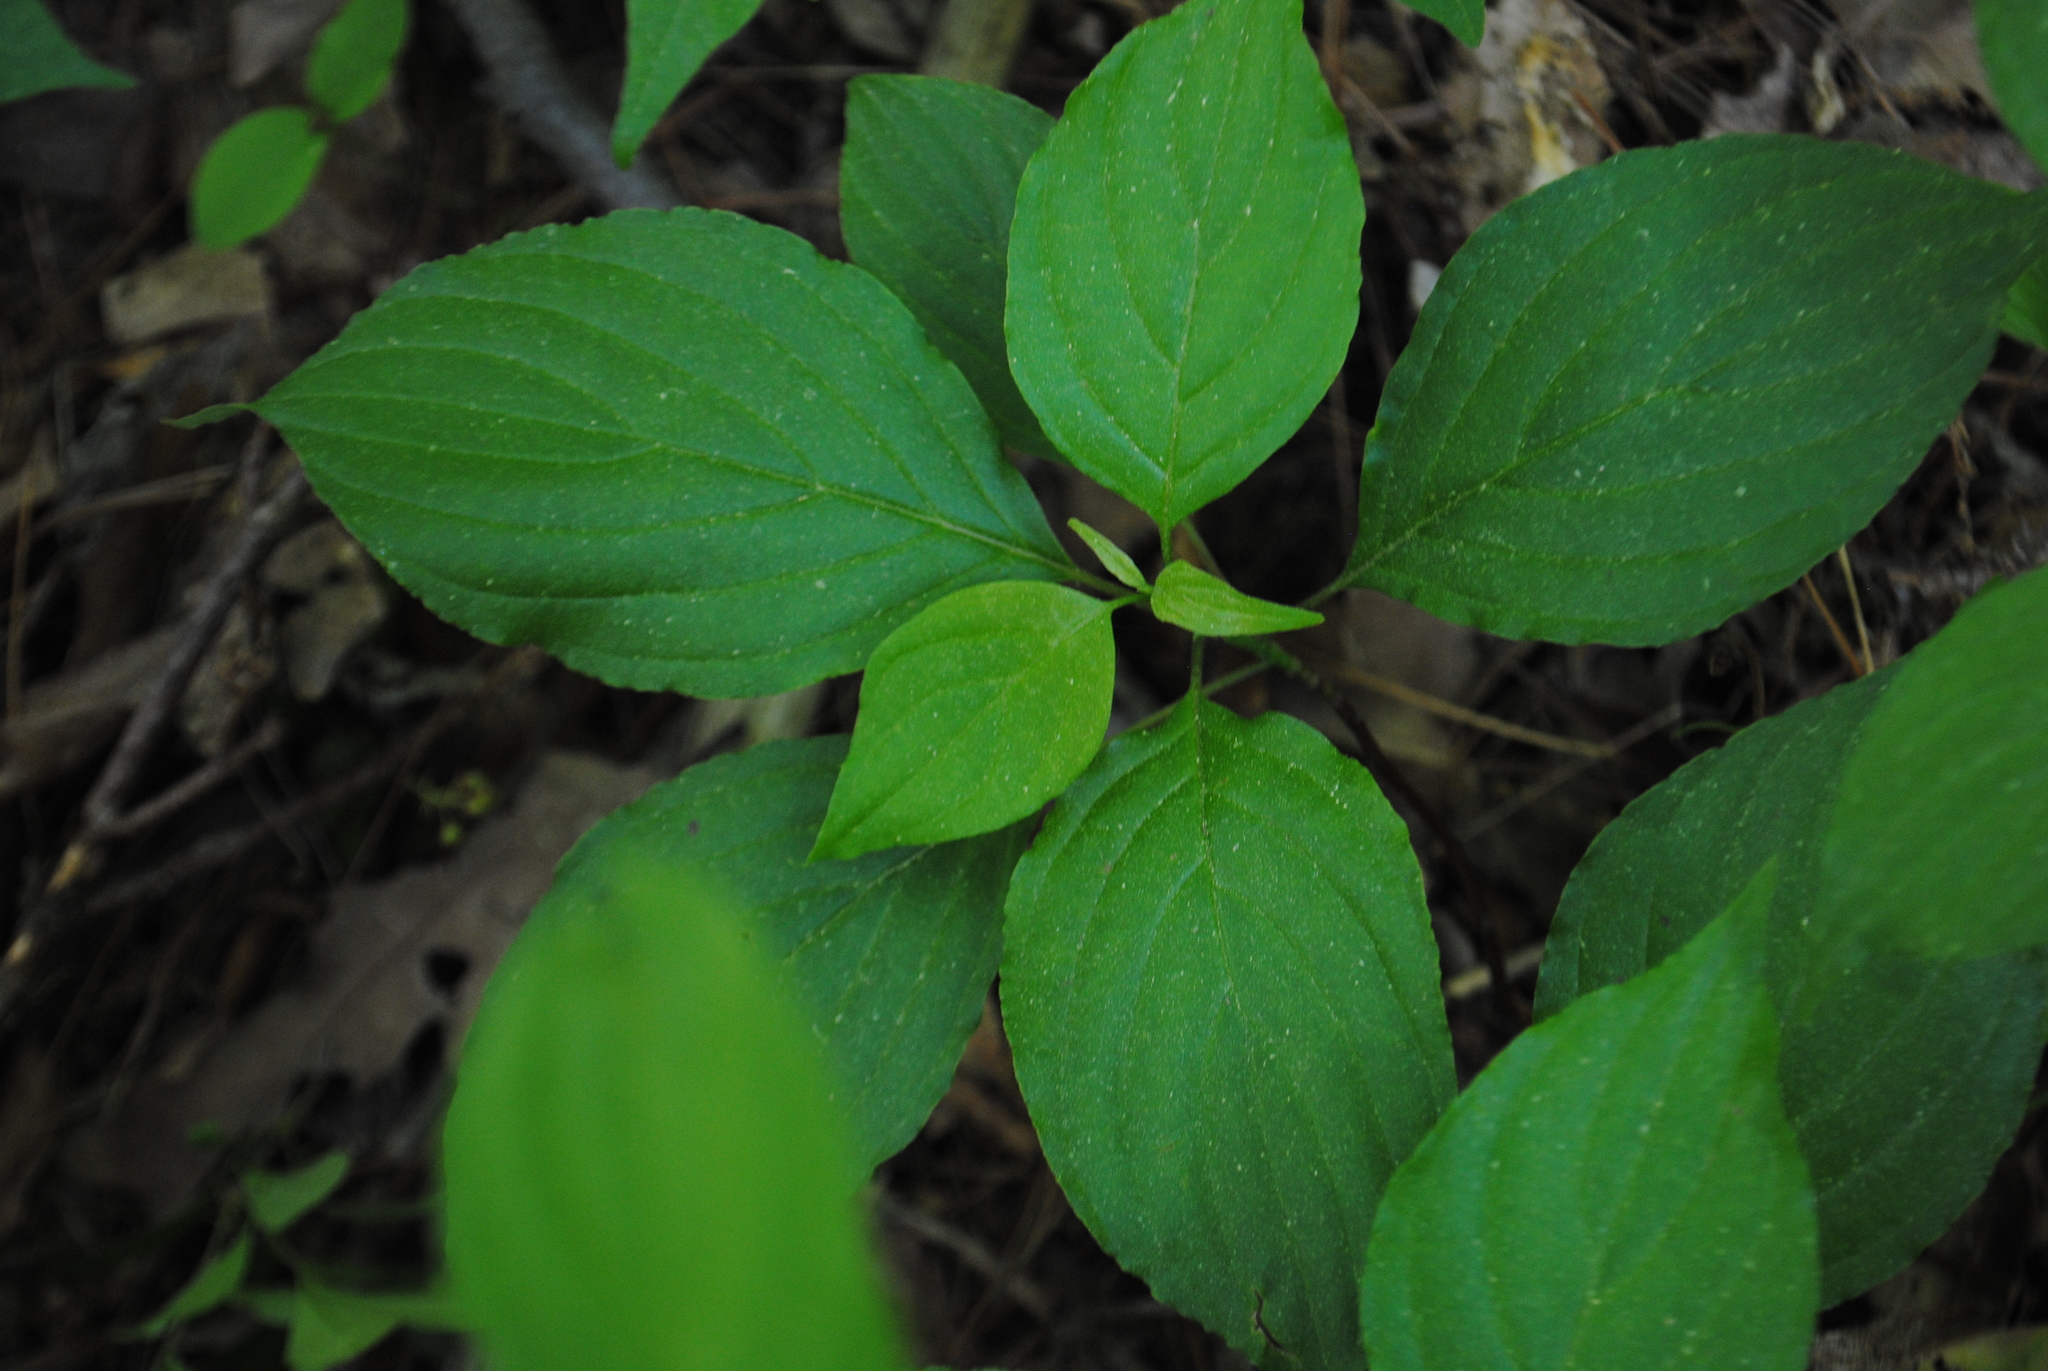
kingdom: Plantae
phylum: Tracheophyta
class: Magnoliopsida
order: Cornales
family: Cornaceae
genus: Cornus
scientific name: Cornus alternifolia
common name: Pagoda dogwood
